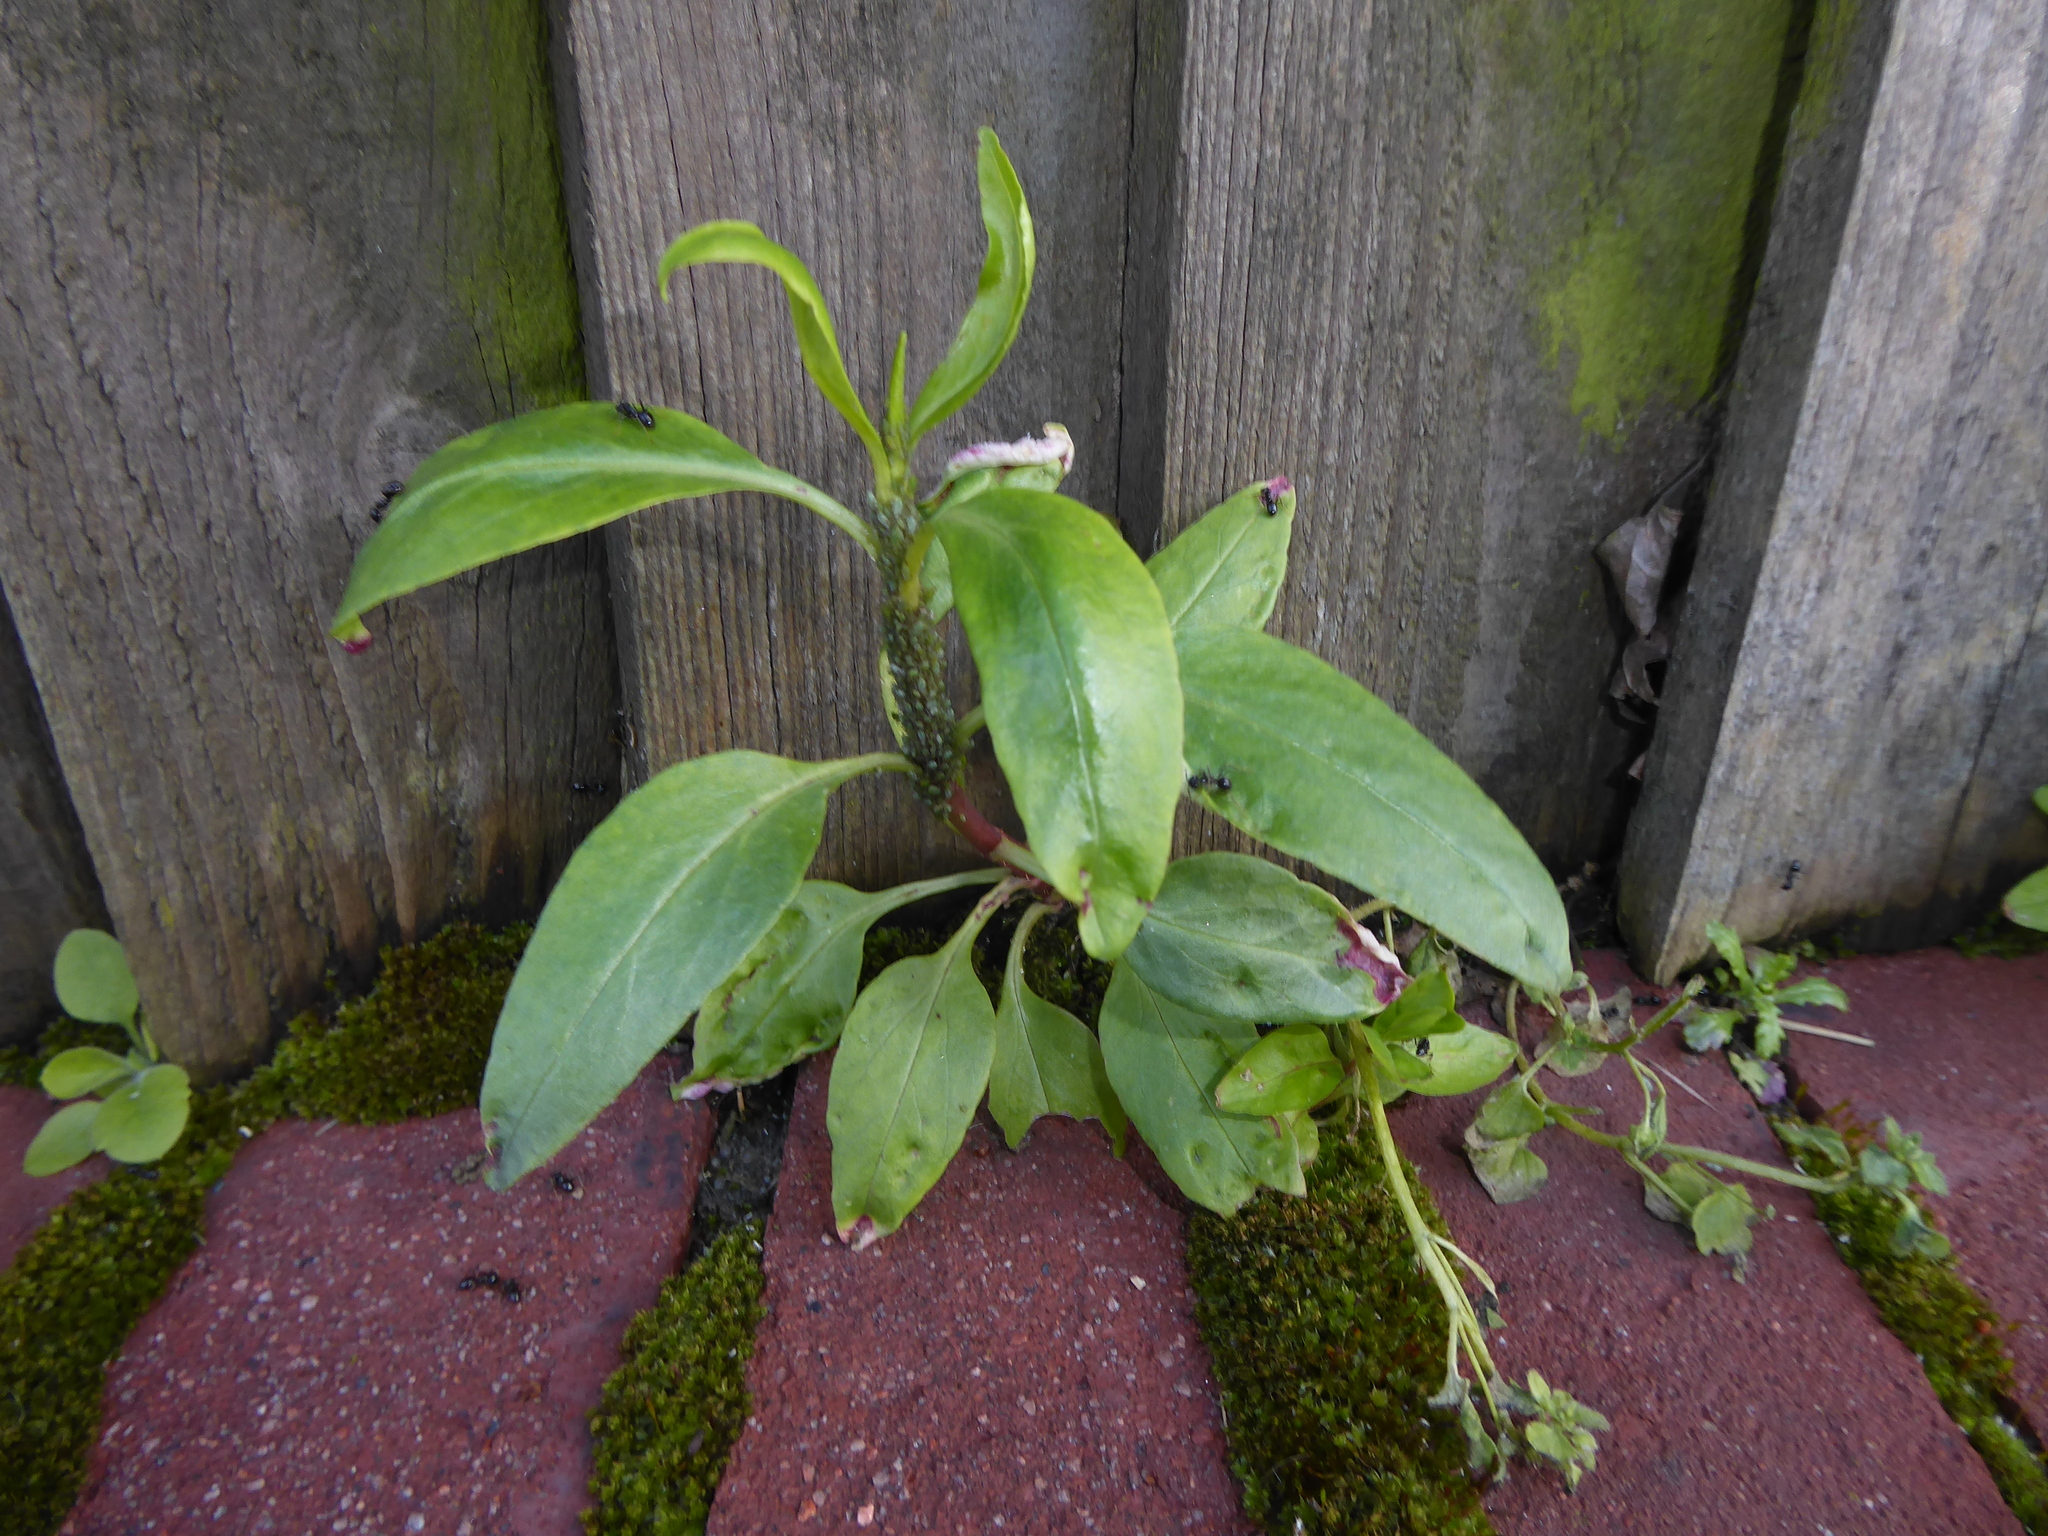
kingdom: Plantae
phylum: Tracheophyta
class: Magnoliopsida
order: Dipsacales
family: Caprifoliaceae
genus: Centranthus
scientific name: Centranthus ruber
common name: Red valerian
